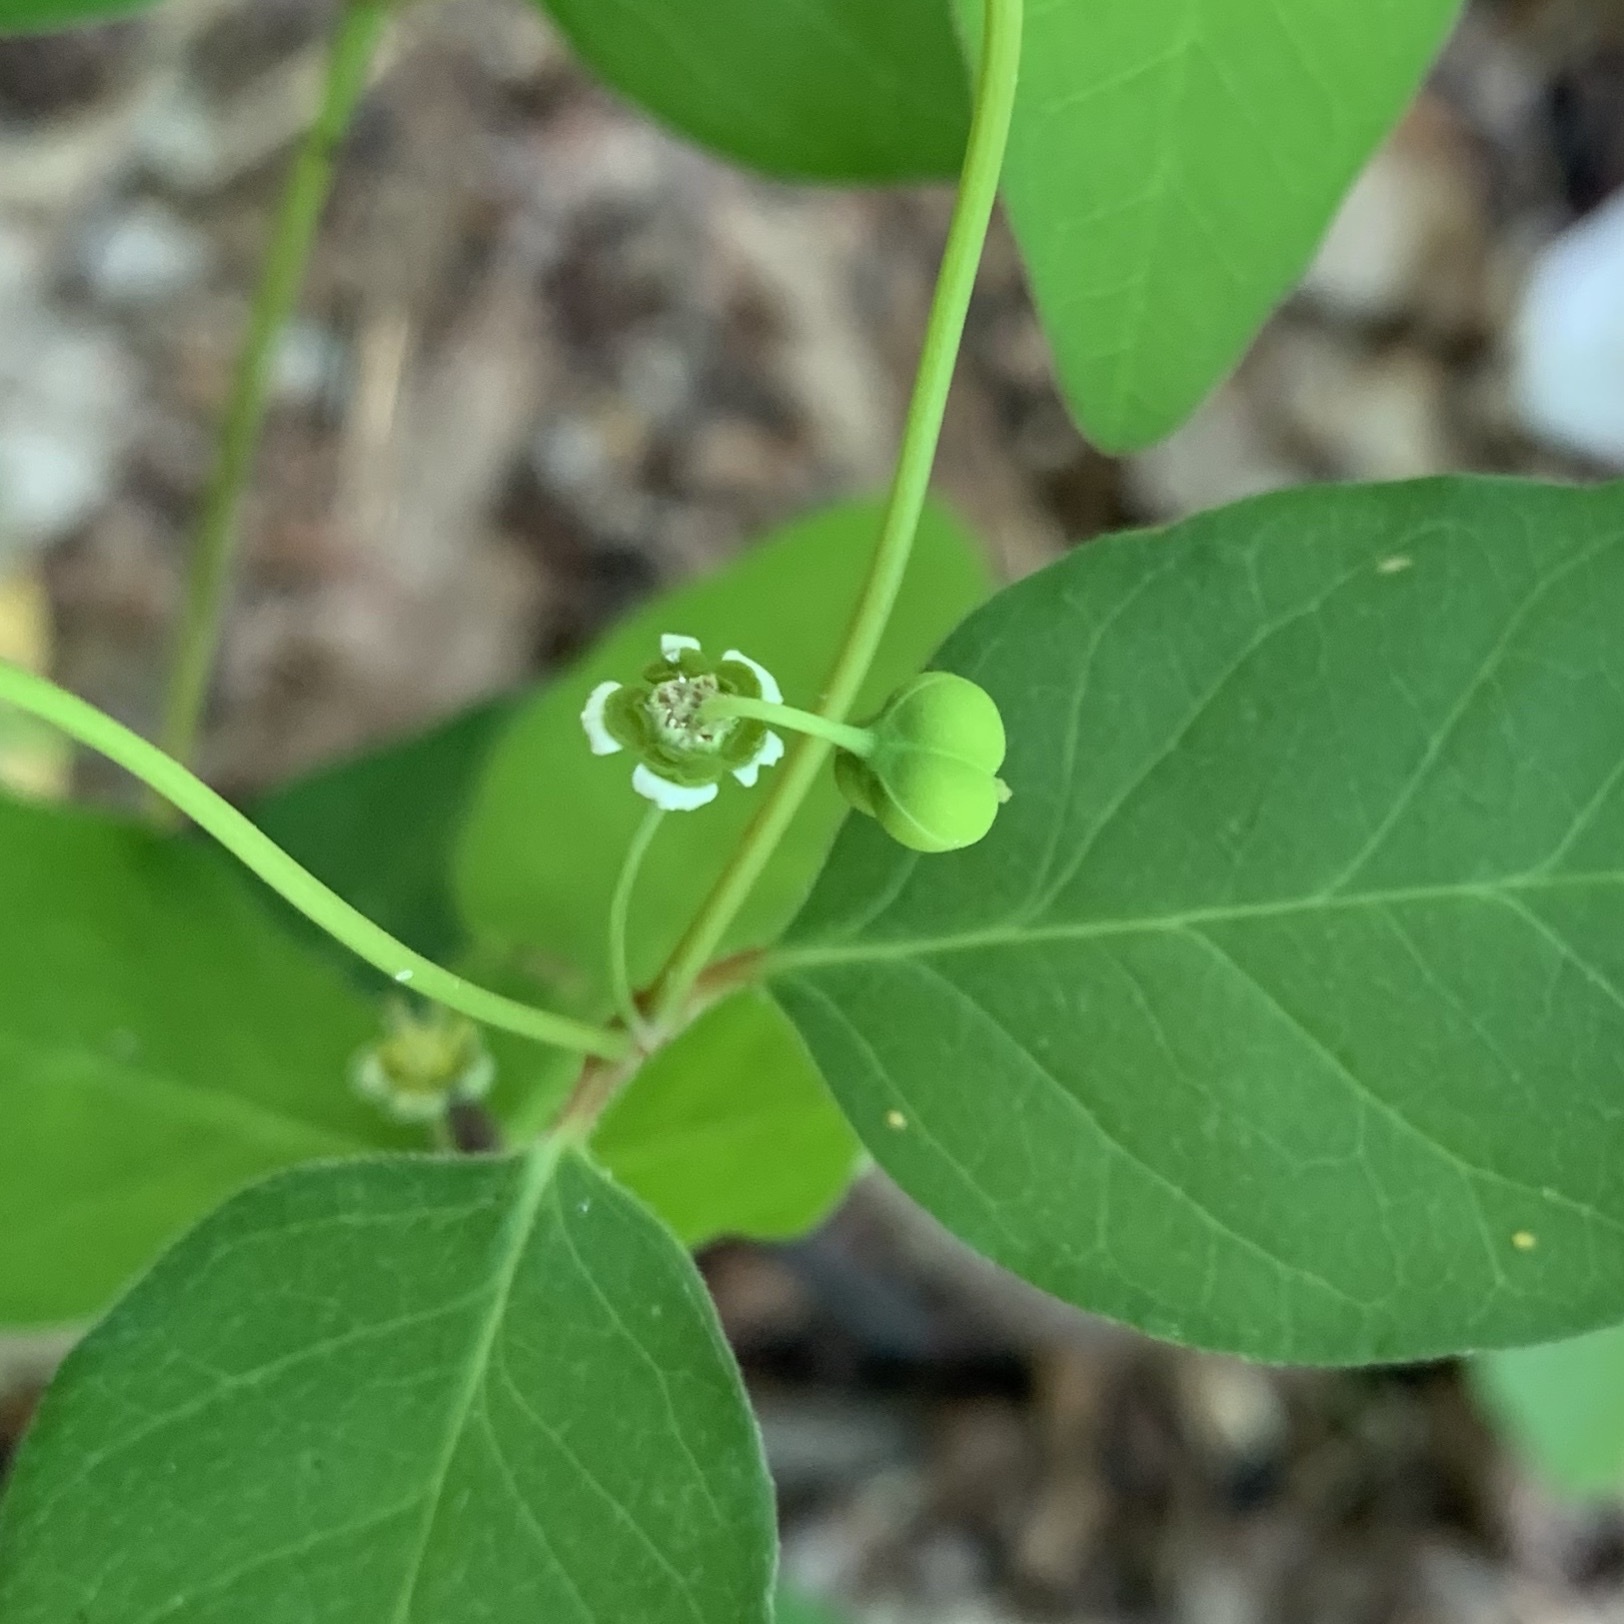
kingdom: Plantae
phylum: Tracheophyta
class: Magnoliopsida
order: Malpighiales
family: Euphorbiaceae
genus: Euphorbia
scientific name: Euphorbia mercurialina
